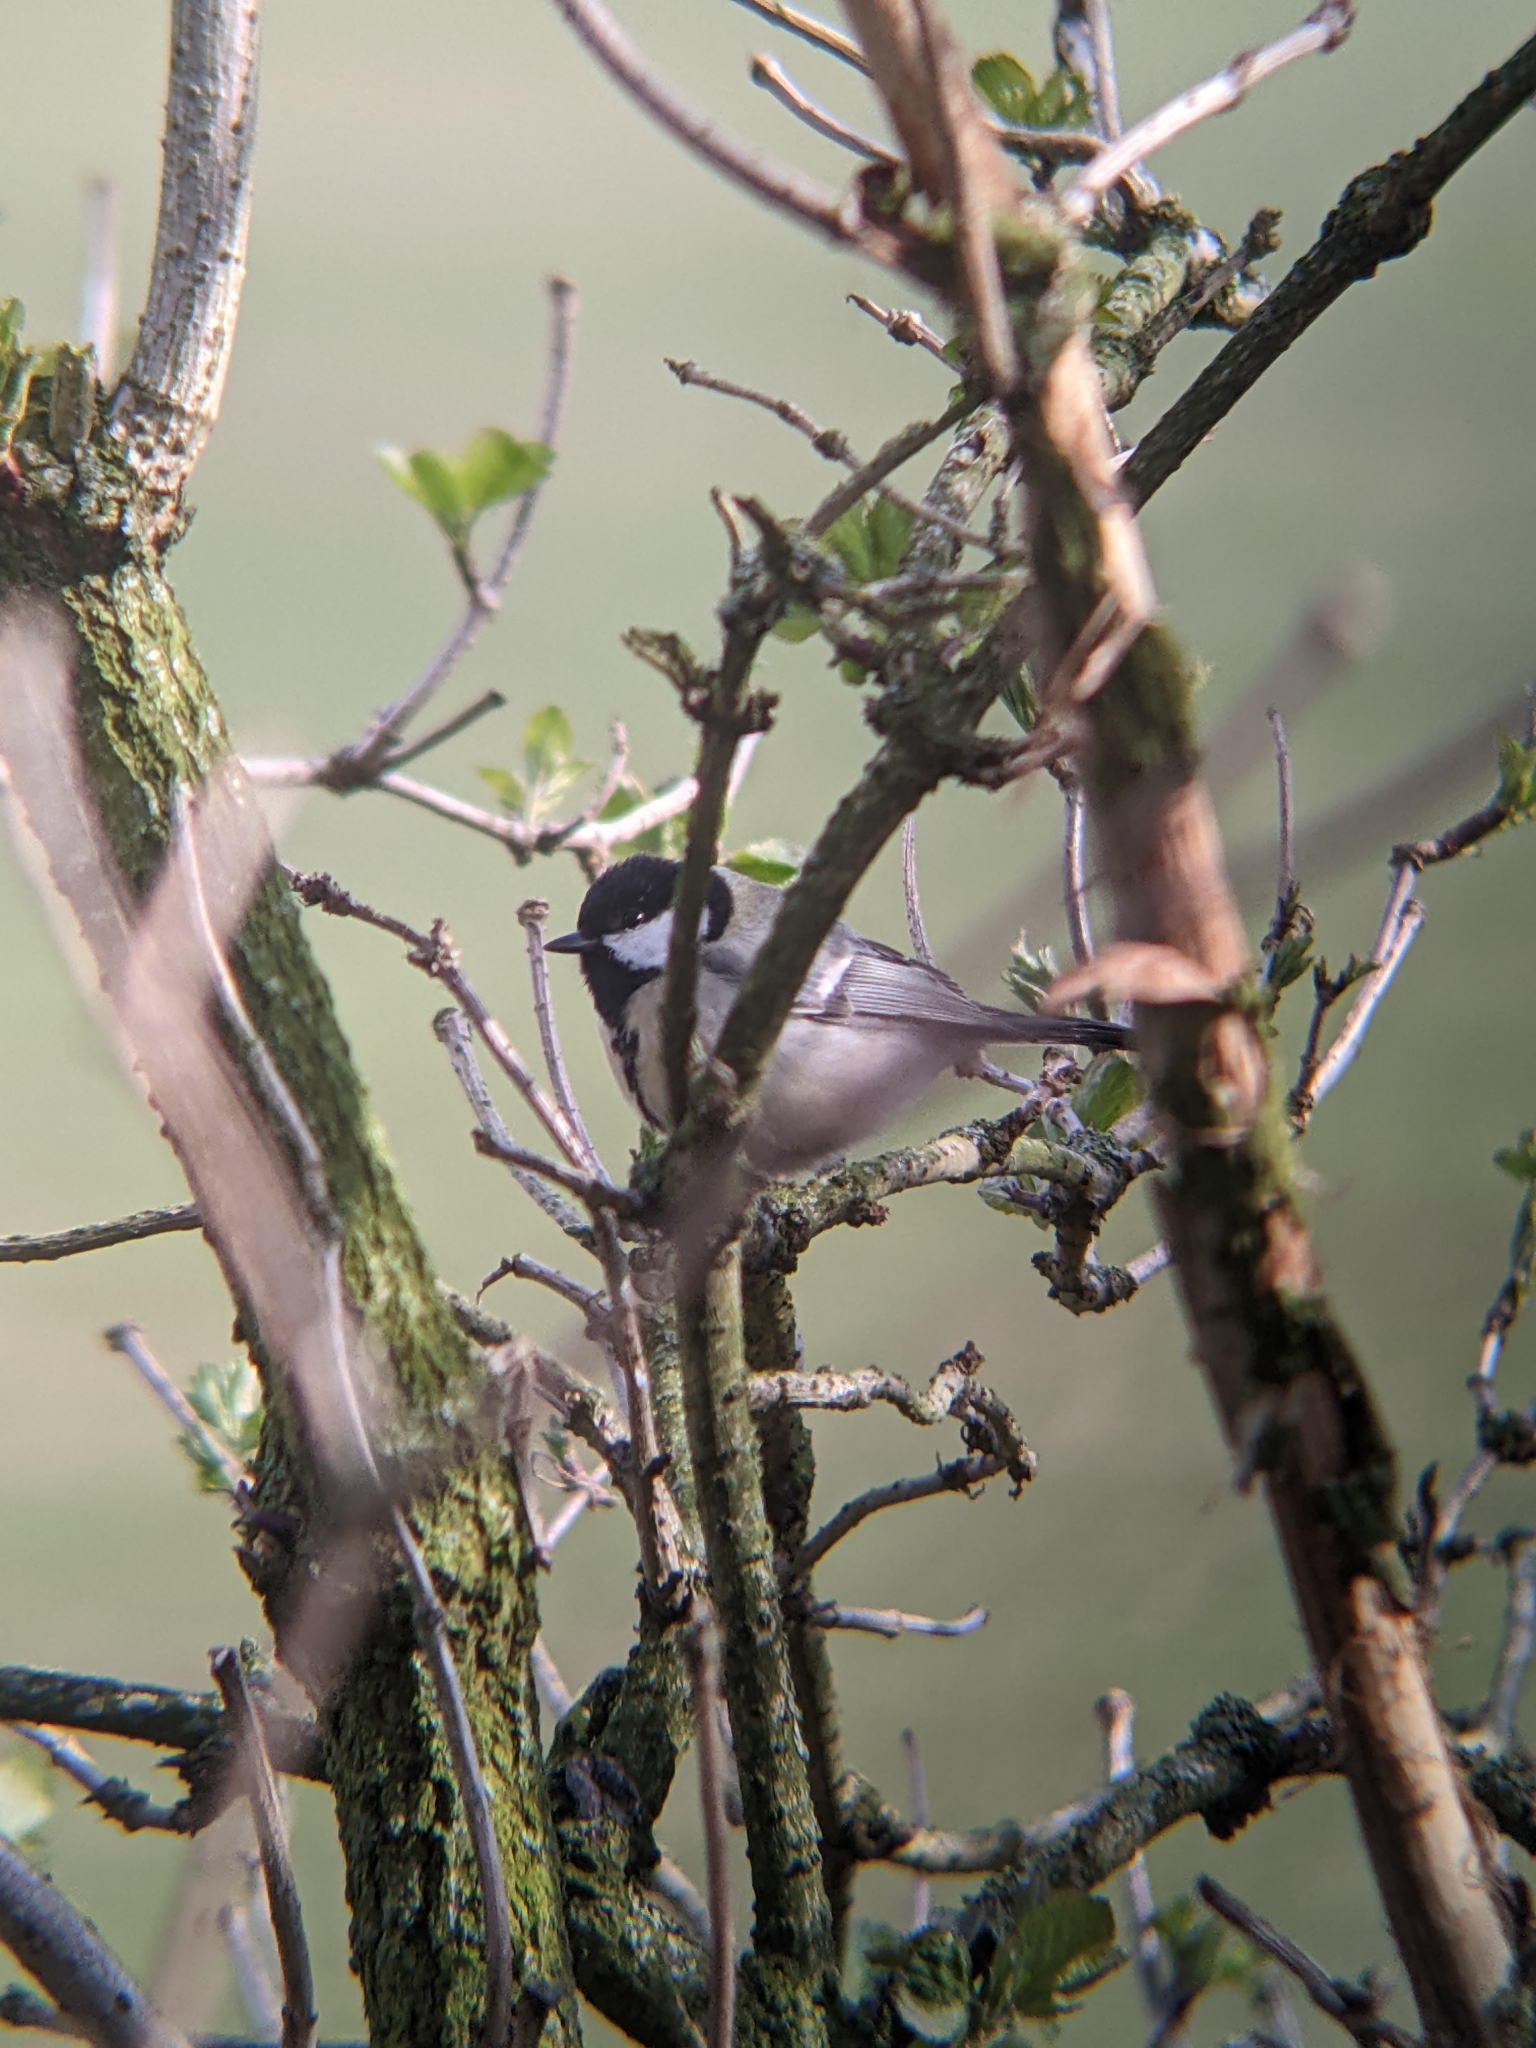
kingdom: Animalia
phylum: Chordata
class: Aves
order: Passeriformes
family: Paridae
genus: Parus
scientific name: Parus major
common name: Great tit
